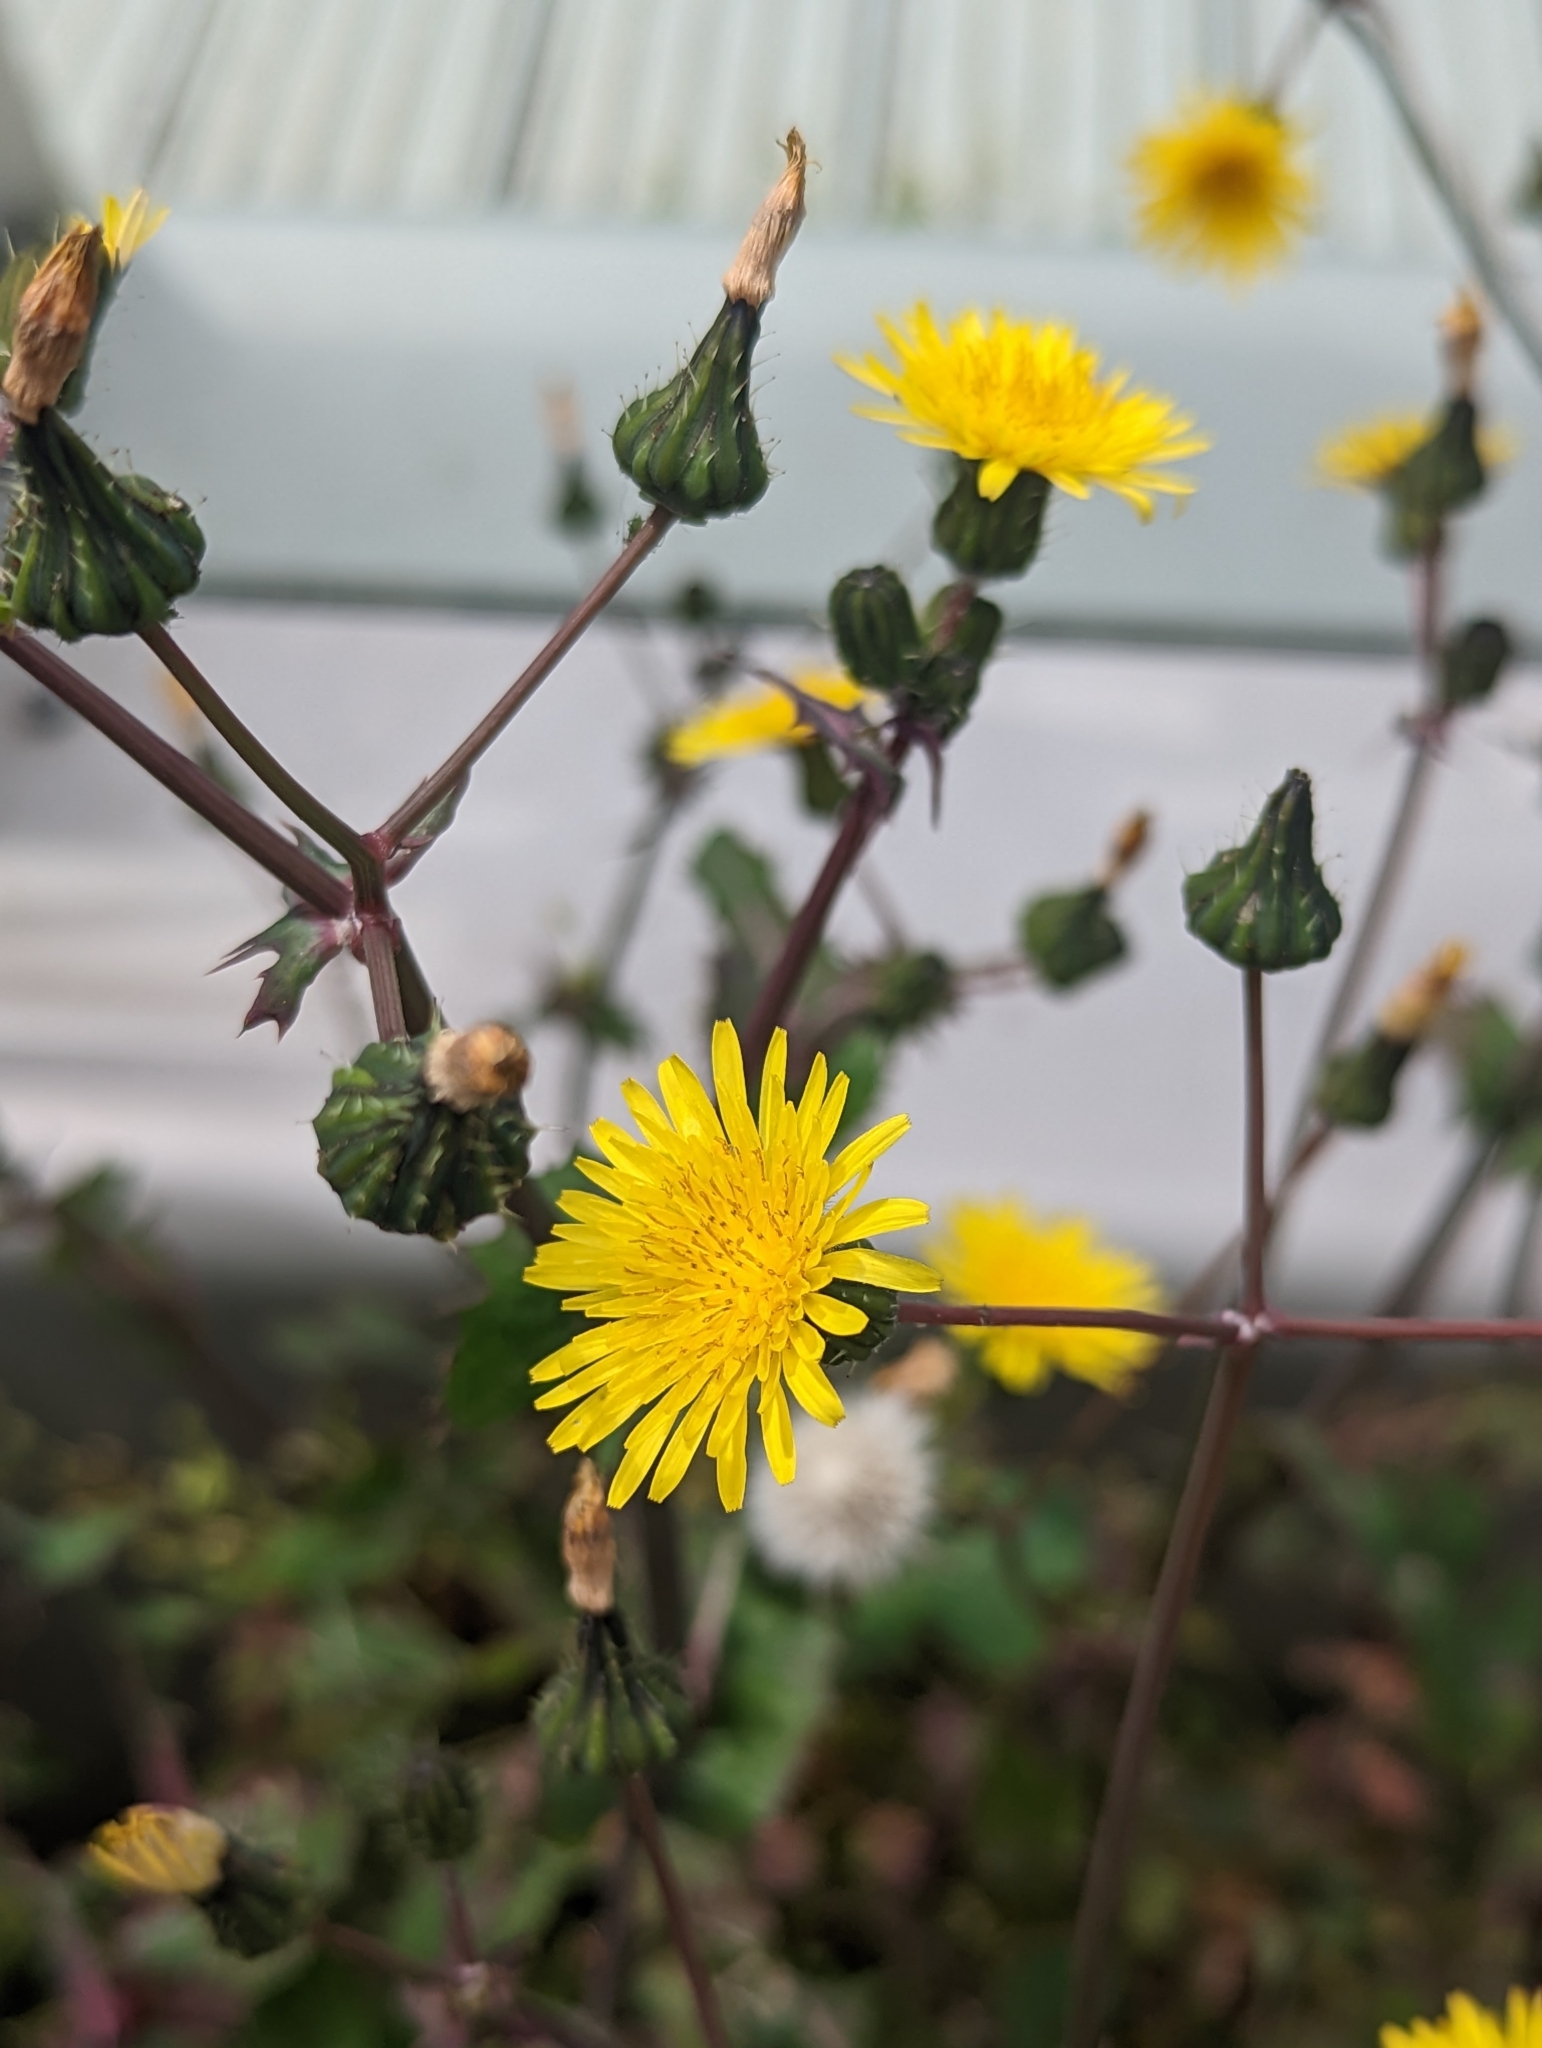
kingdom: Plantae
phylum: Tracheophyta
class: Magnoliopsida
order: Asterales
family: Asteraceae
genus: Sonchus
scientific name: Sonchus oleraceus
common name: Common sowthistle
